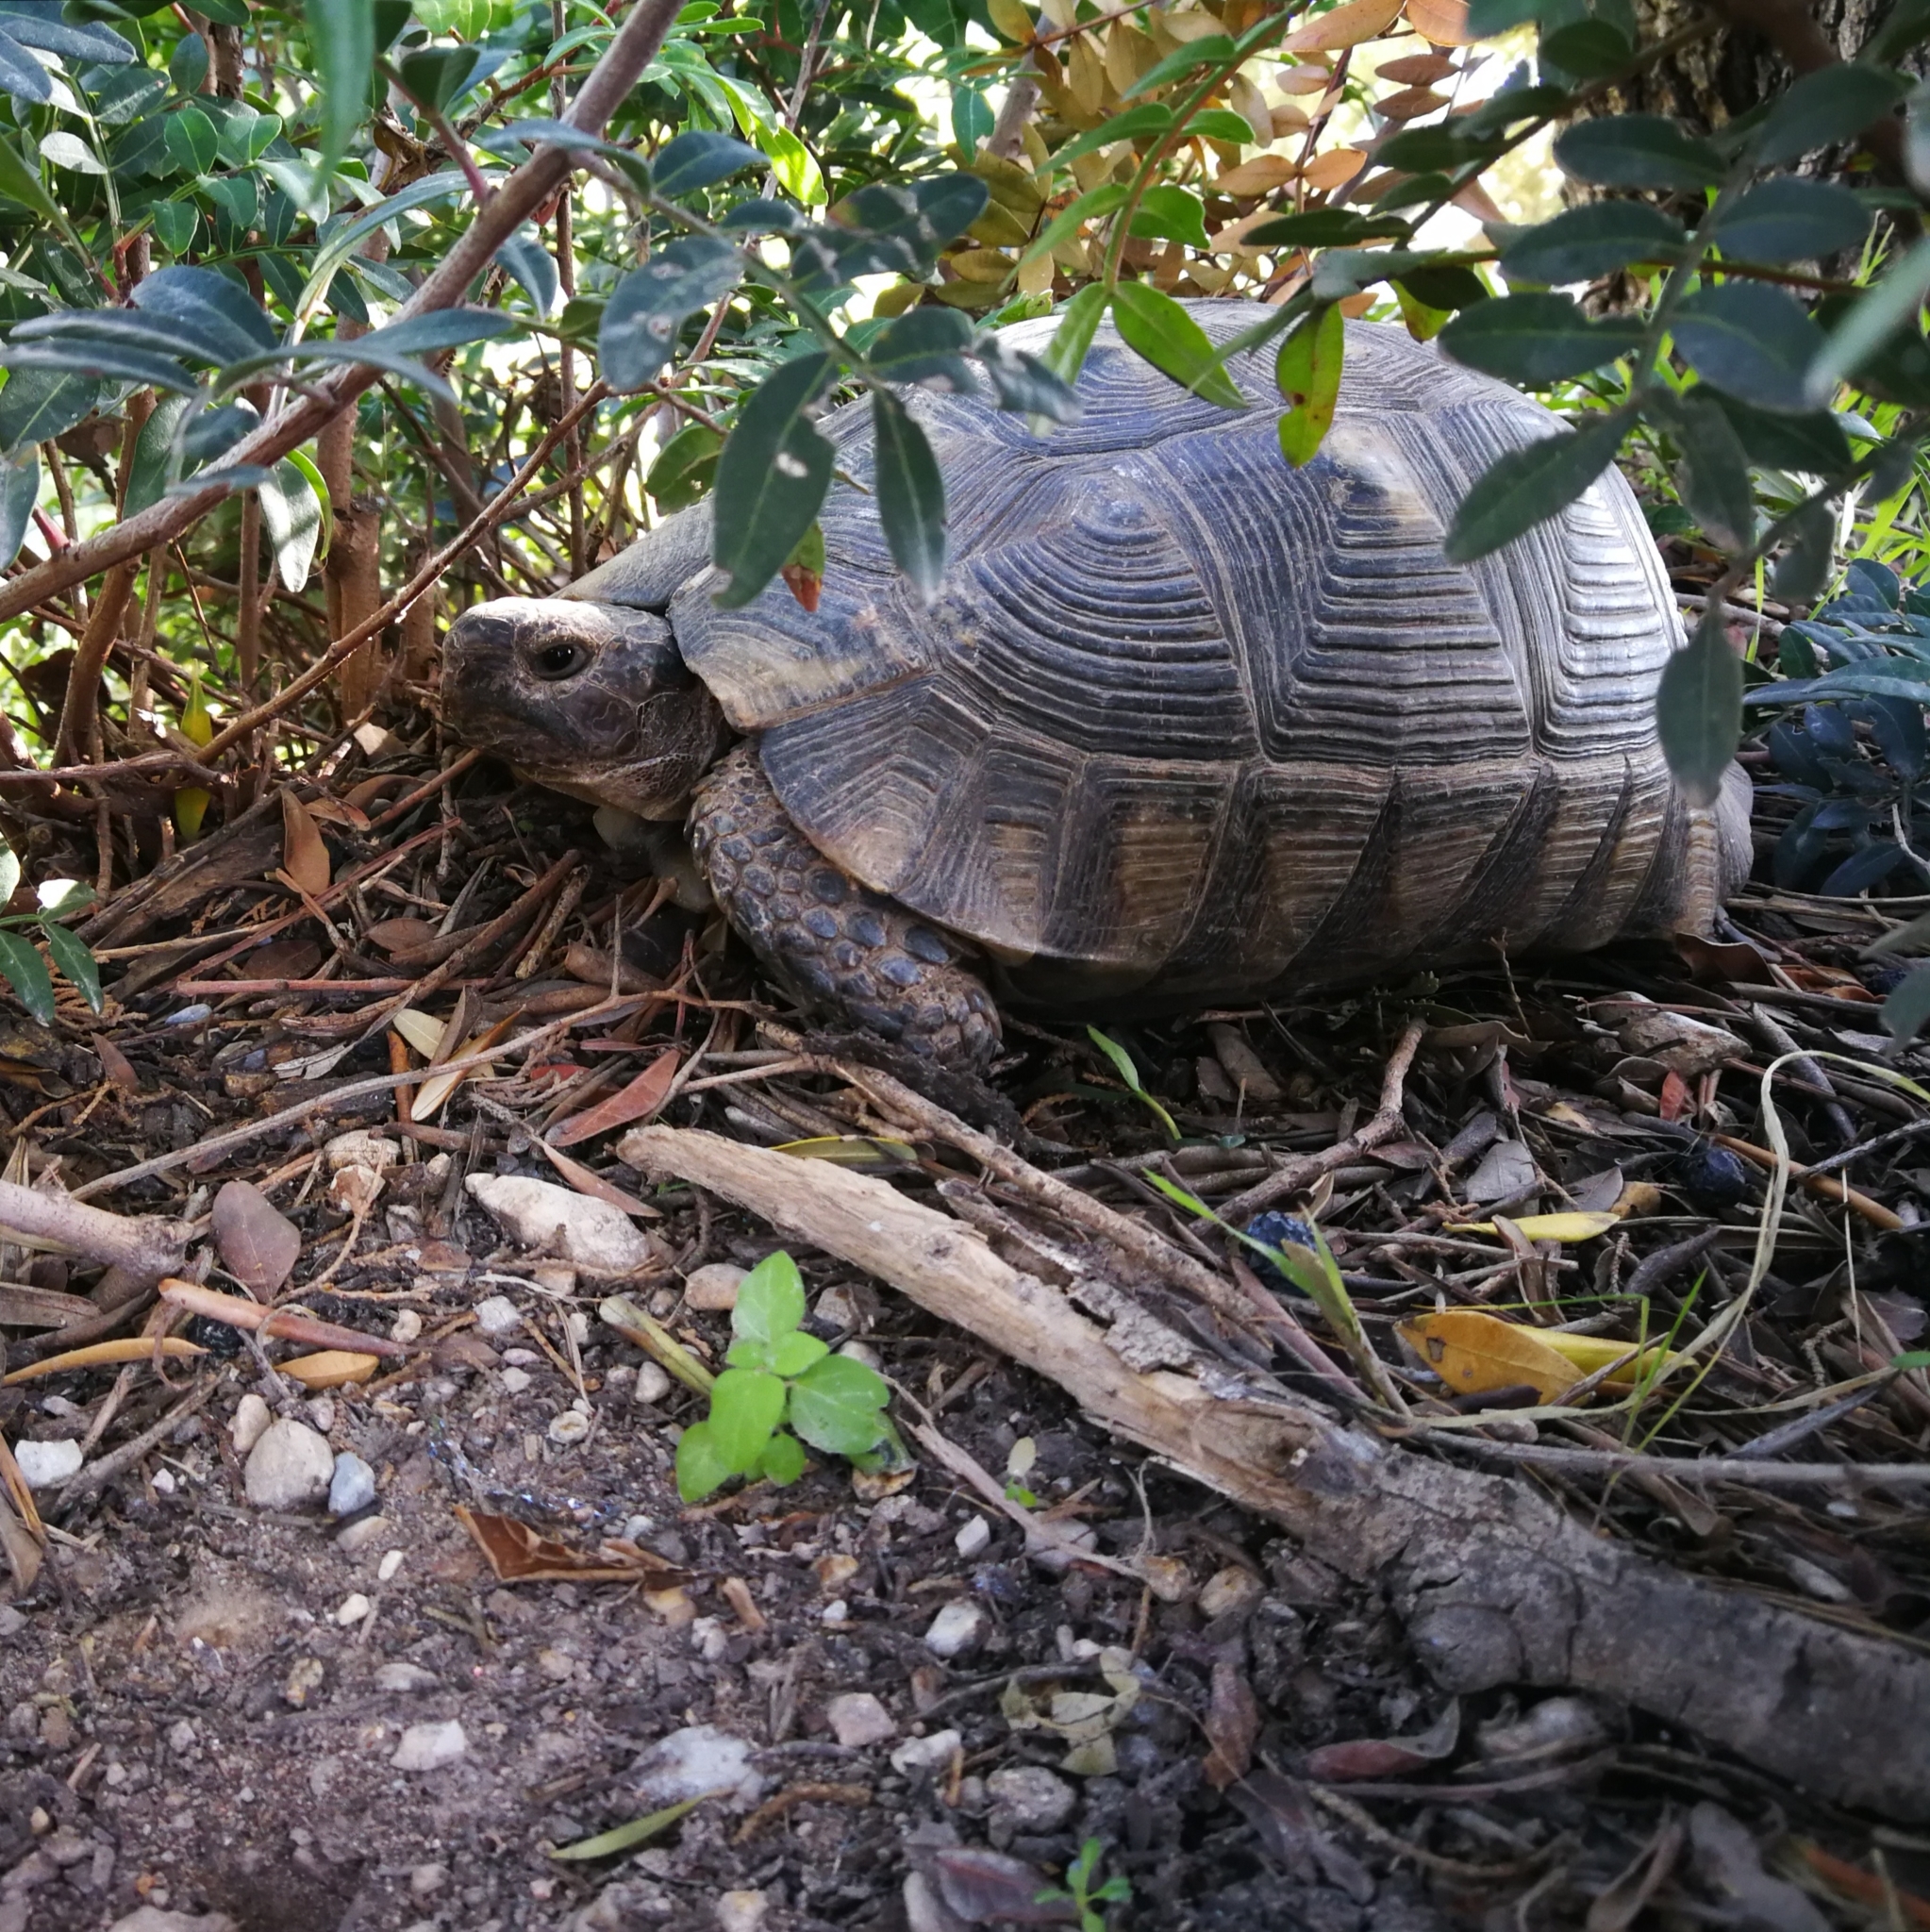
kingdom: Animalia
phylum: Chordata
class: Testudines
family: Testudinidae
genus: Testudo
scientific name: Testudo marginata
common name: Marginated tortoise
